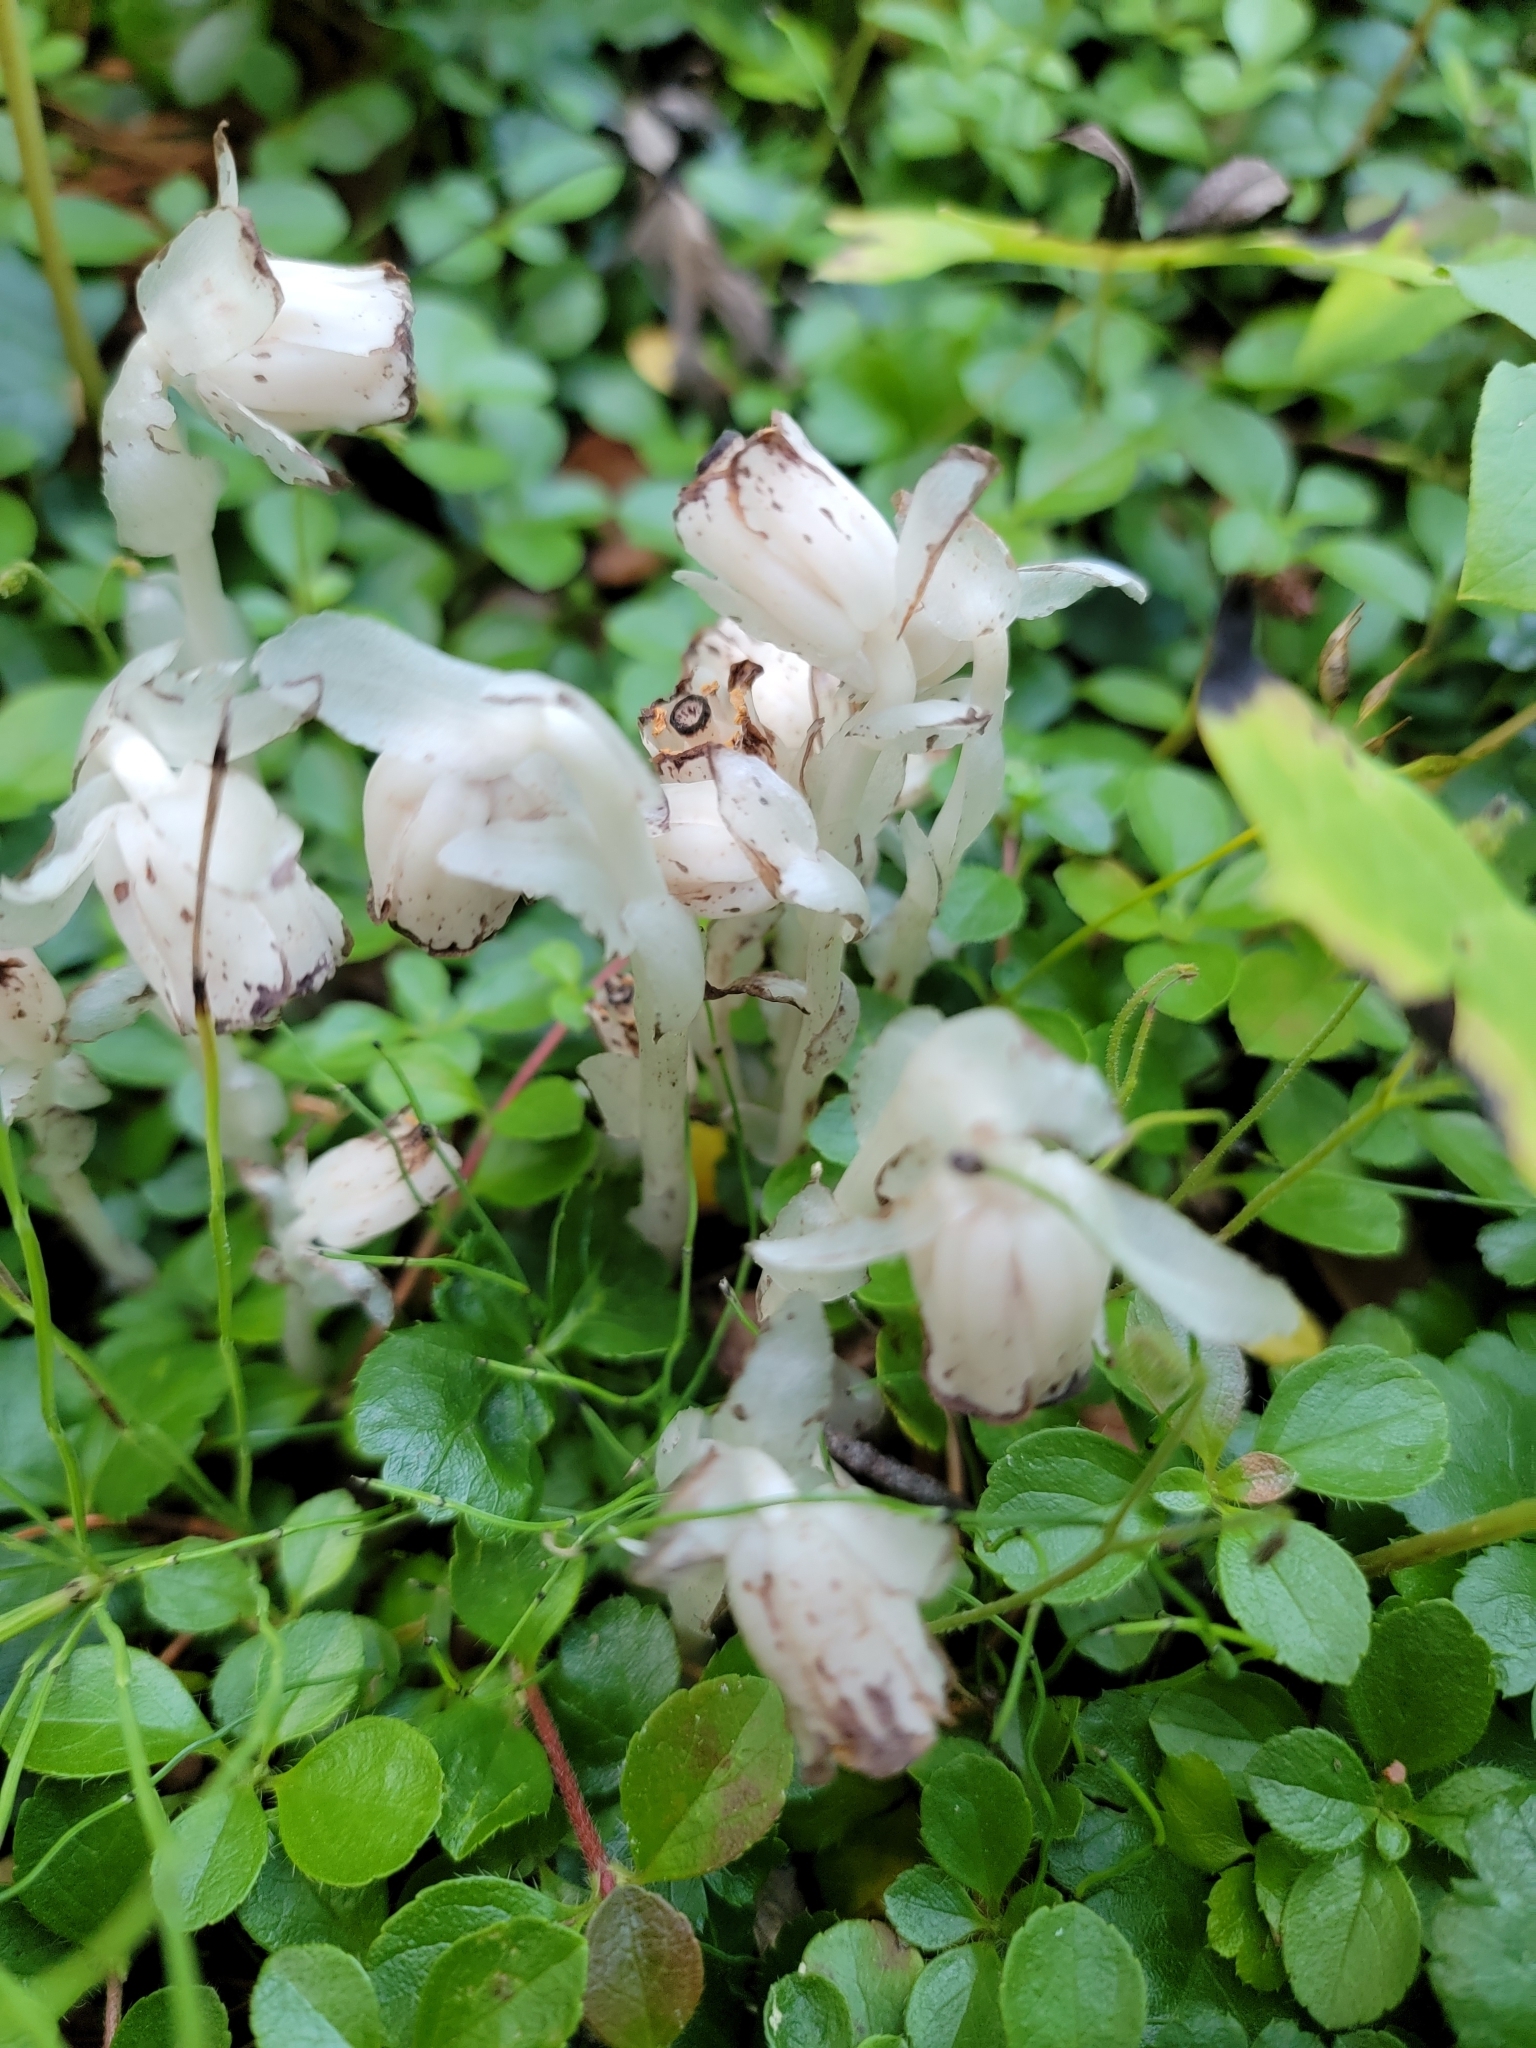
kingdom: Plantae
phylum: Tracheophyta
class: Magnoliopsida
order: Ericales
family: Ericaceae
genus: Monotropa
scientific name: Monotropa uniflora
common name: Convulsion root
